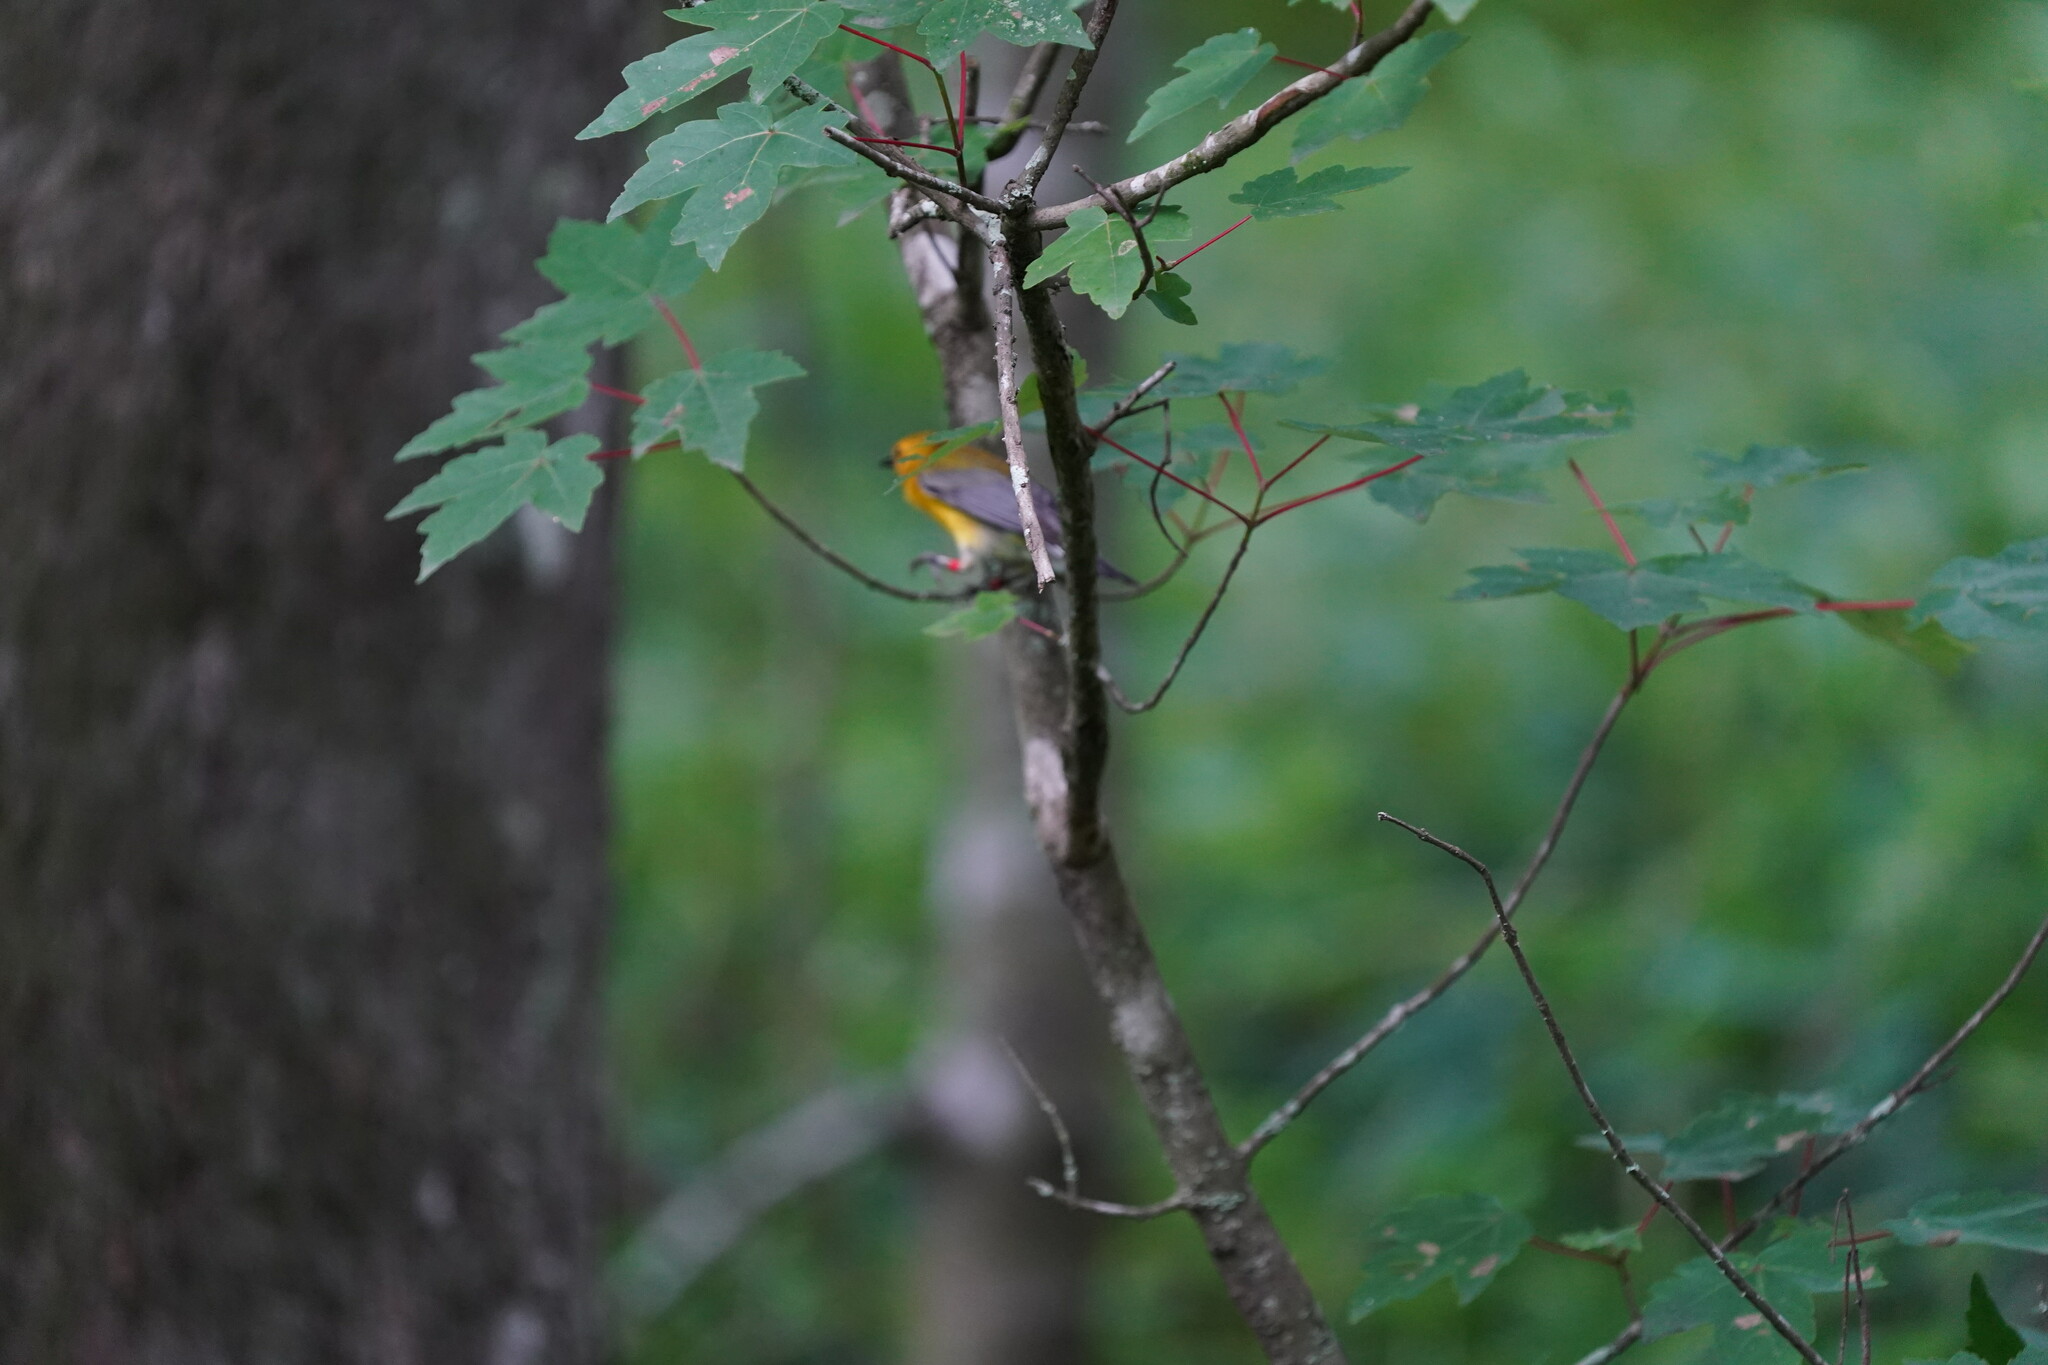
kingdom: Animalia
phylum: Chordata
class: Aves
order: Passeriformes
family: Parulidae
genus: Protonotaria
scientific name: Protonotaria citrea
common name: Prothonotary warbler
